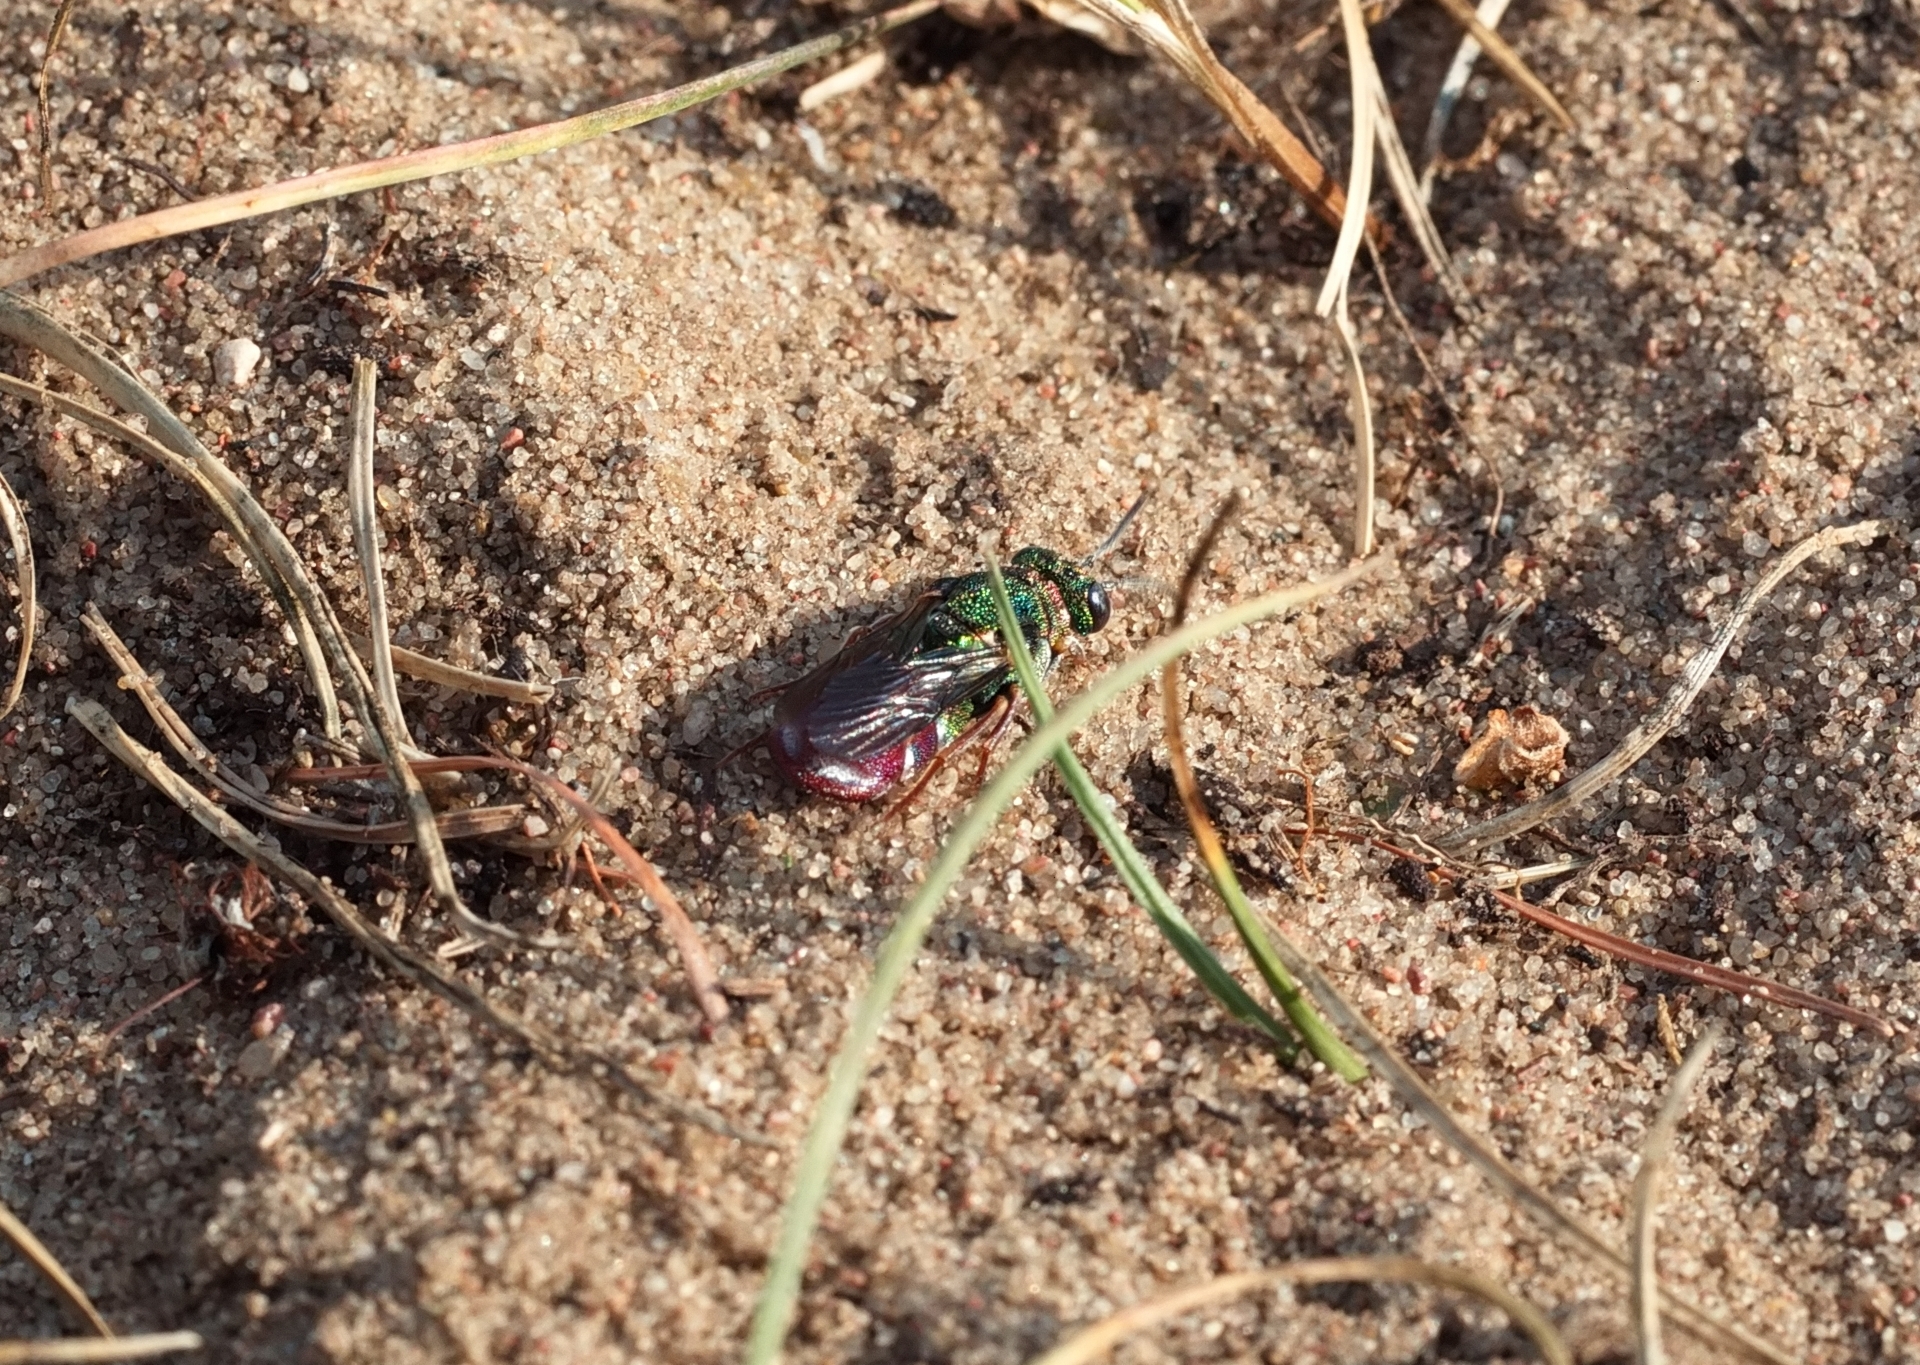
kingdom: Animalia
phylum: Arthropoda
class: Insecta
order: Hymenoptera
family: Chrysididae
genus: Parnopes
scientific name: Parnopes grandior
